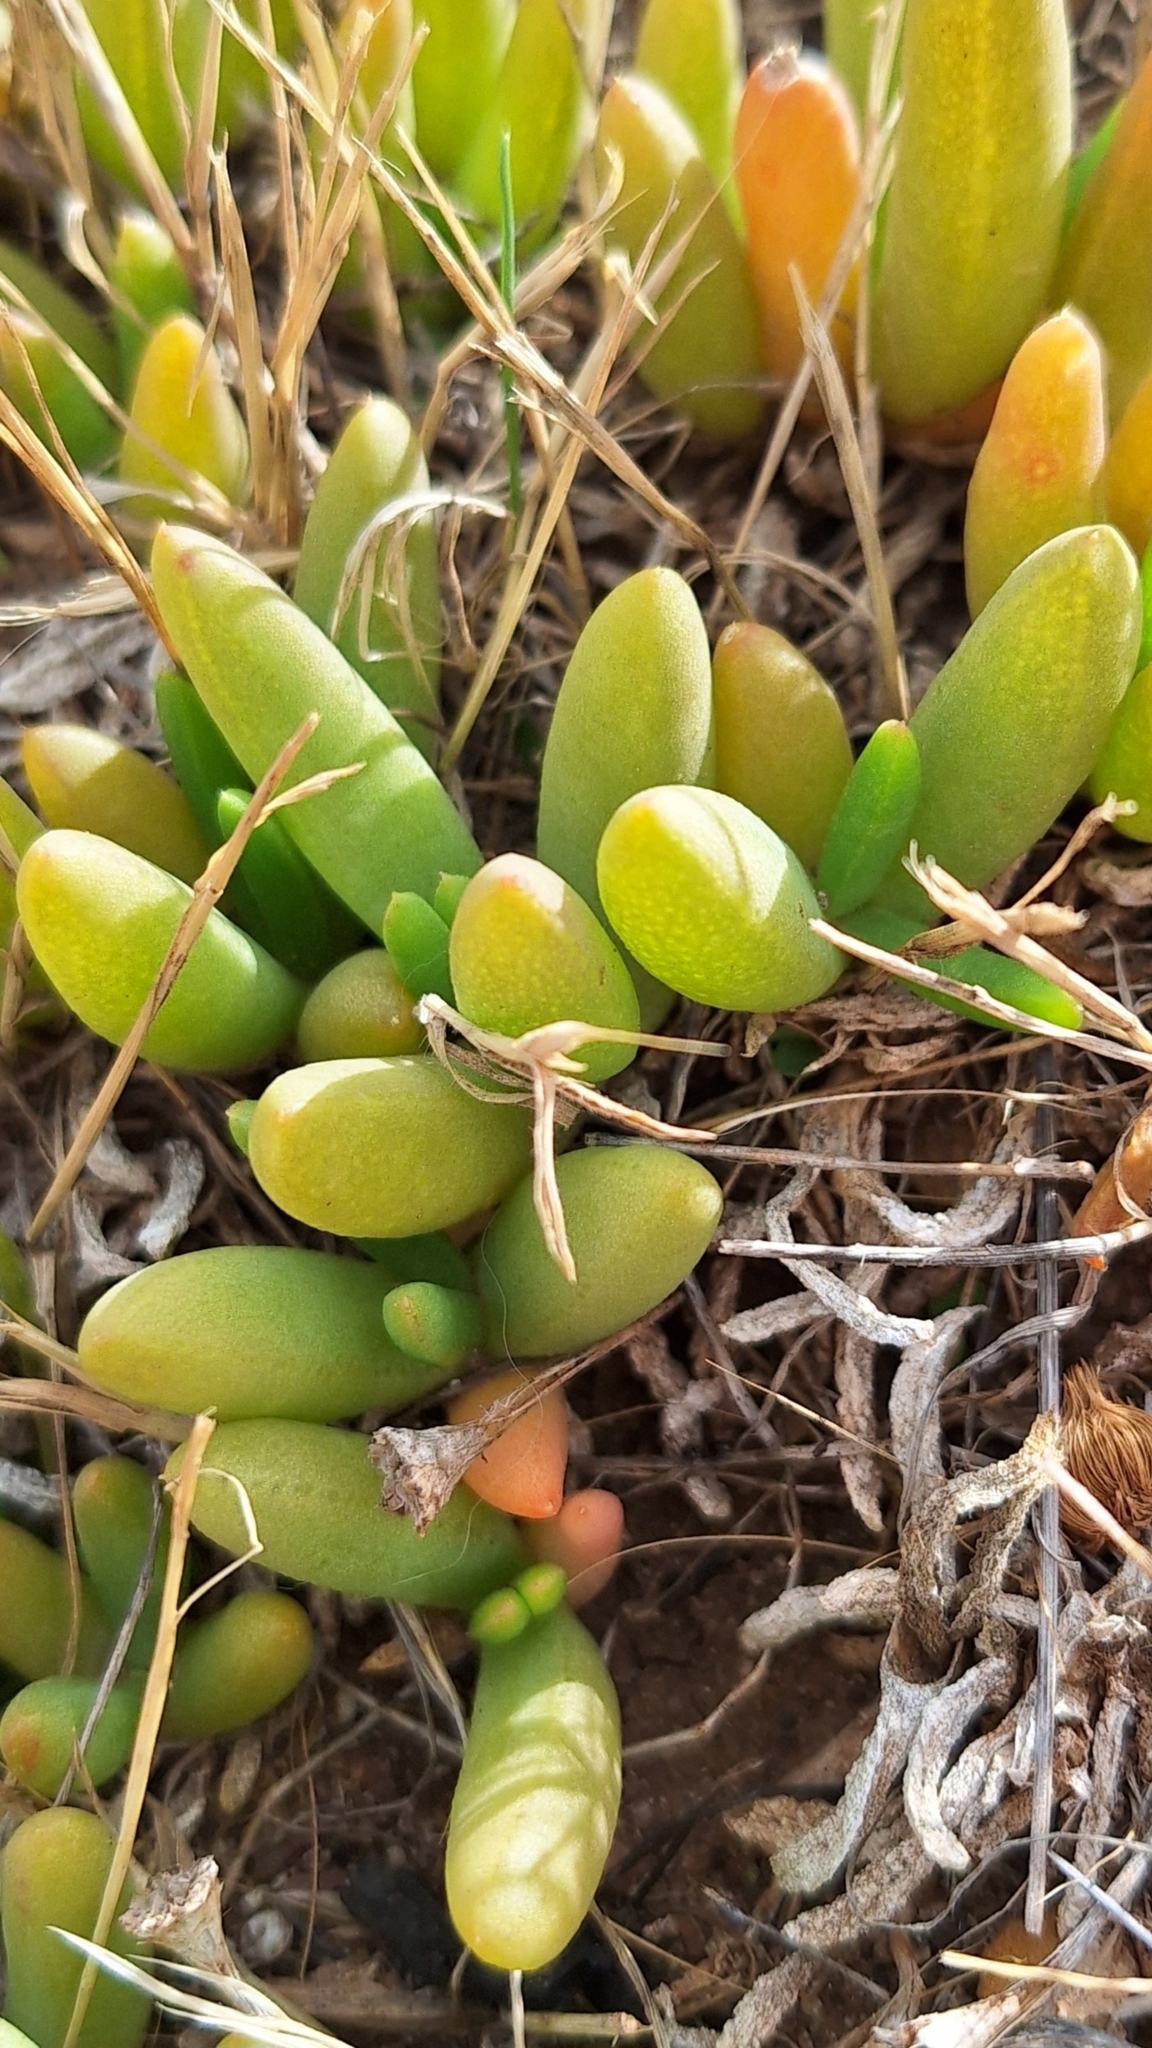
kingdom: Plantae
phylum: Tracheophyta
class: Magnoliopsida
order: Caryophyllales
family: Aizoaceae
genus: Disphyma
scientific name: Disphyma crassifolium
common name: Purple dewplant
